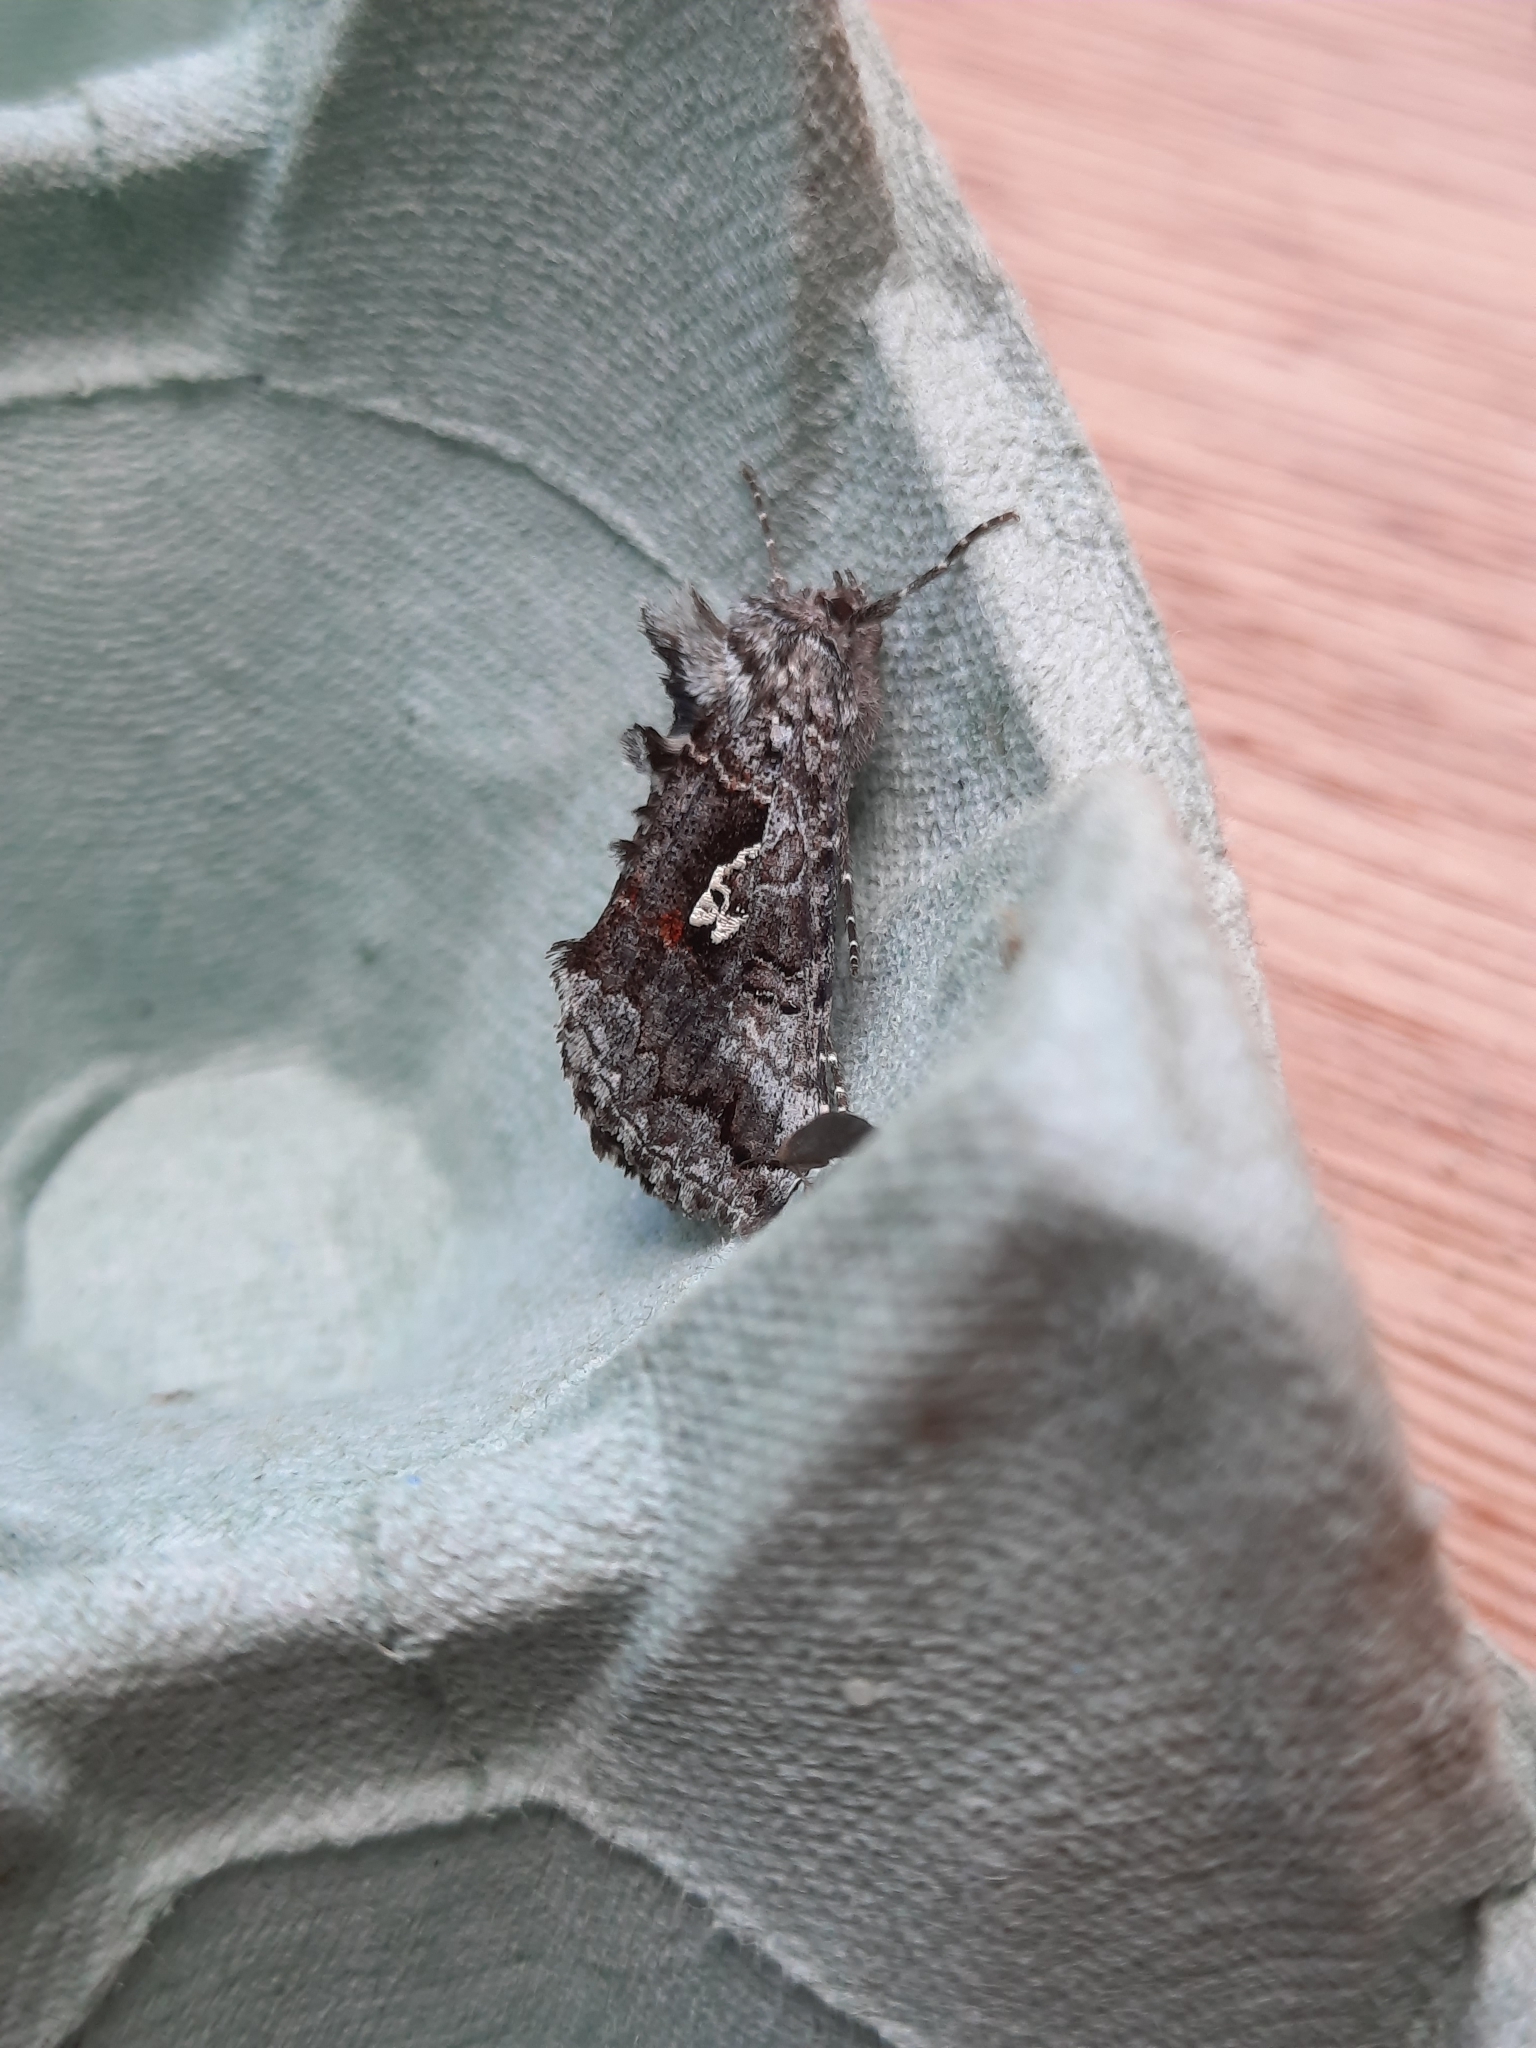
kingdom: Animalia
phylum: Arthropoda
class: Insecta
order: Lepidoptera
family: Noctuidae
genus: Syngrapha
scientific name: Syngrapha interrogationis
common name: Scarce silver y
